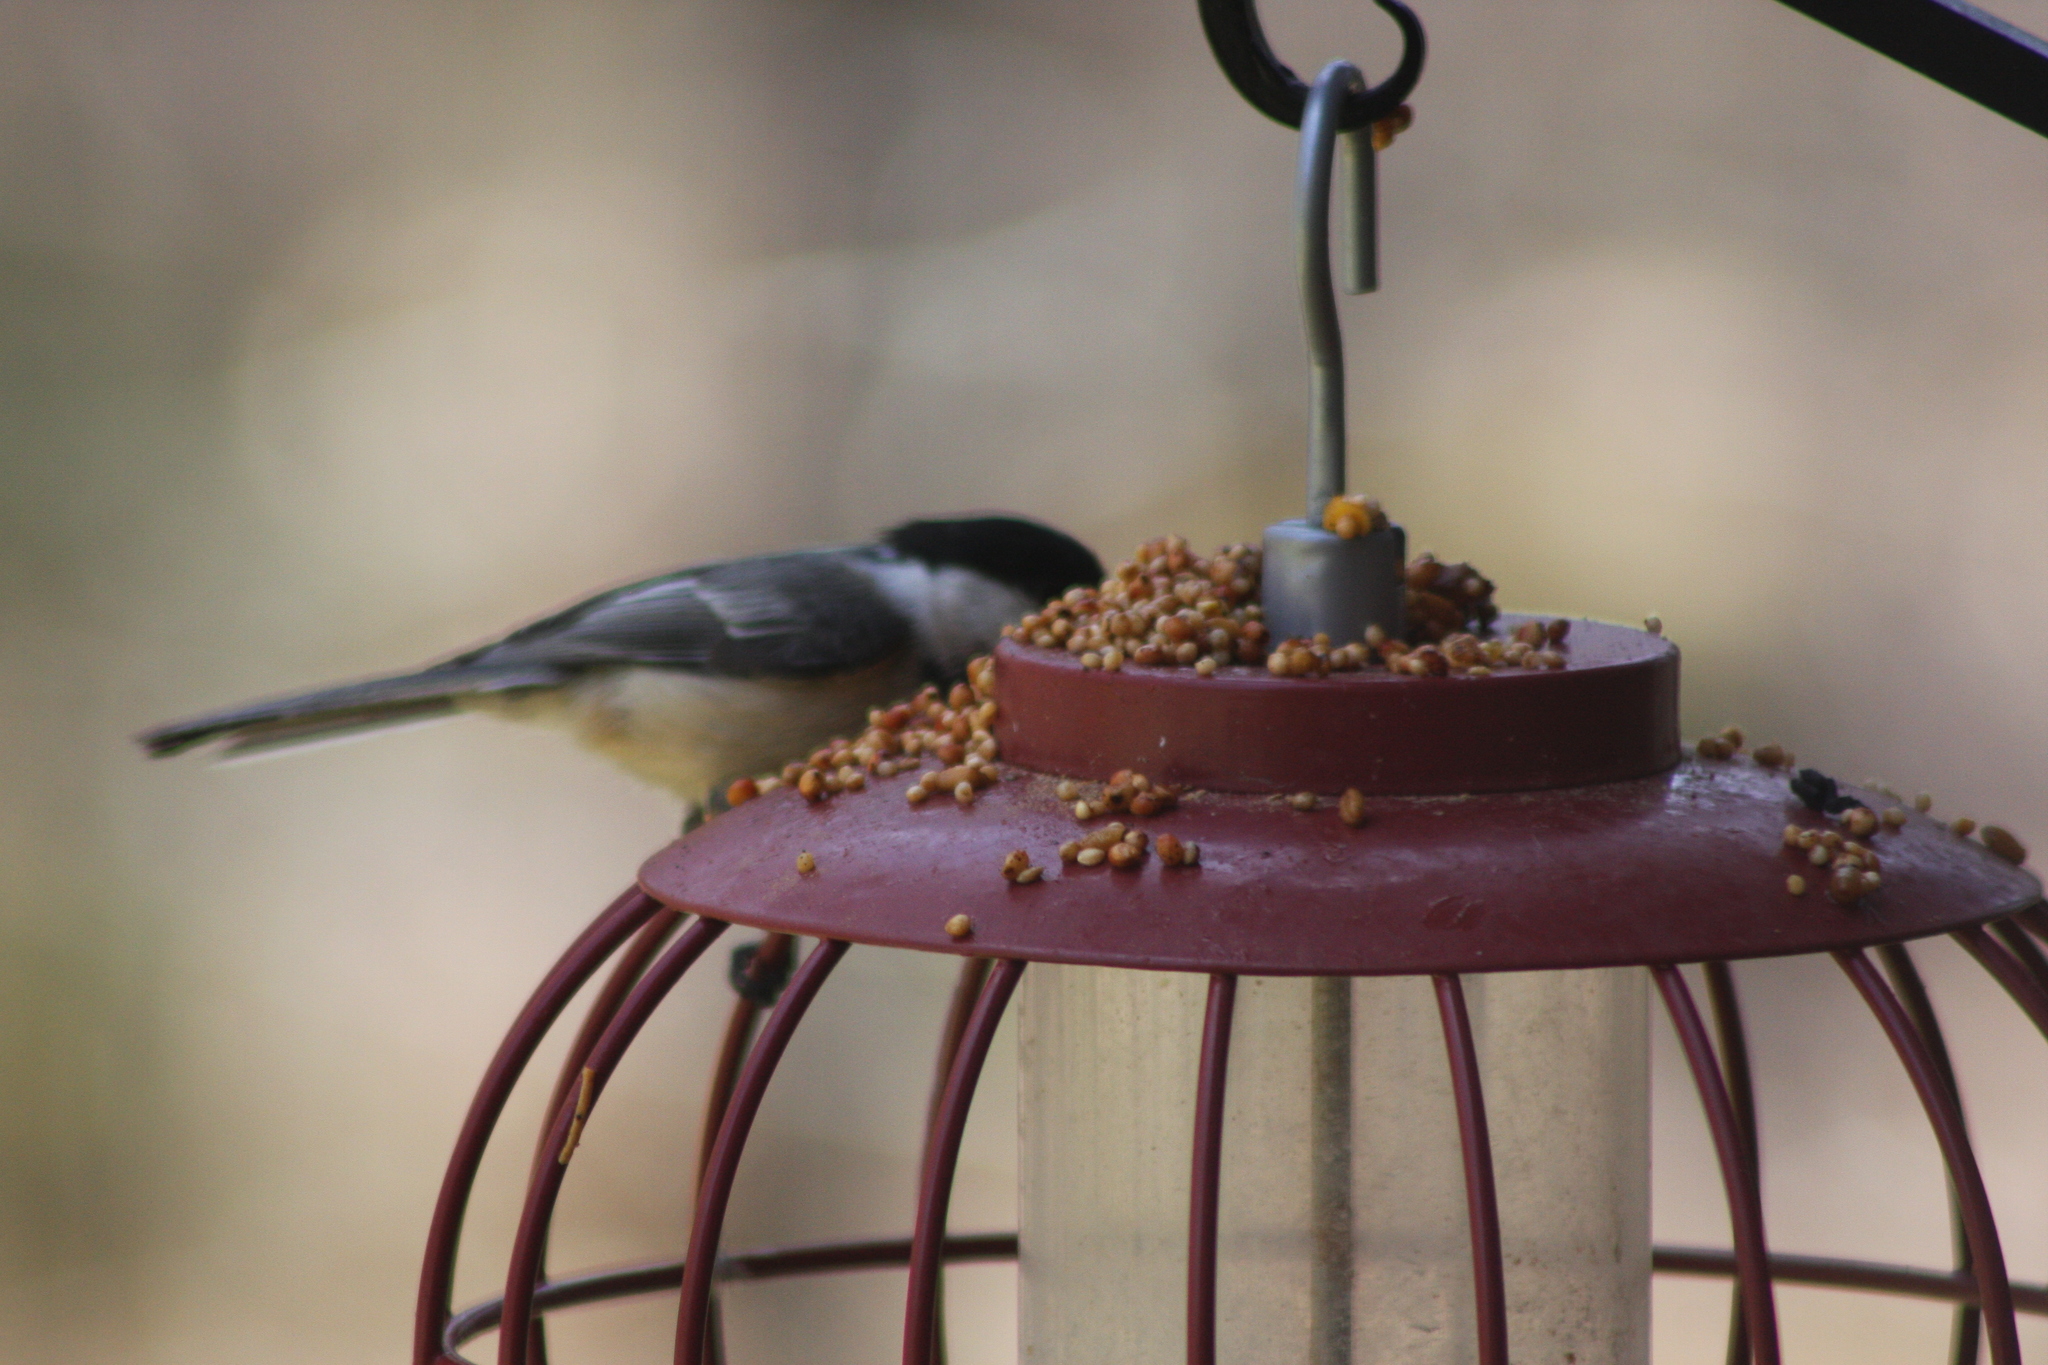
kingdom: Animalia
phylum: Chordata
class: Aves
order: Passeriformes
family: Paridae
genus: Poecile
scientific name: Poecile atricapillus
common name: Black-capped chickadee
